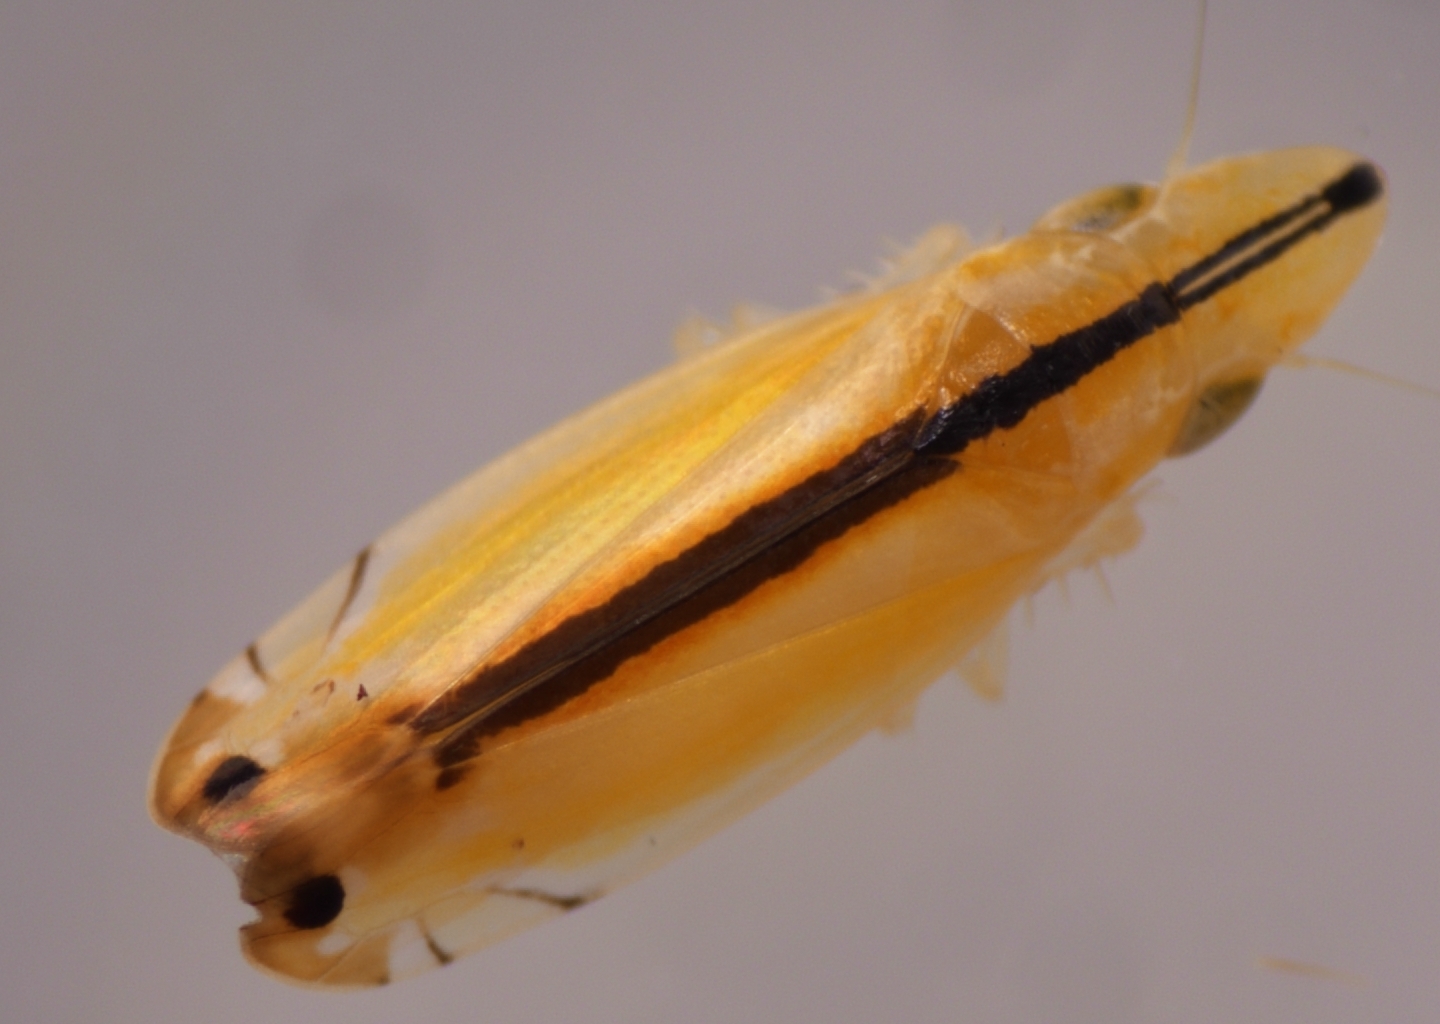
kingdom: Animalia
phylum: Arthropoda
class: Insecta
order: Hemiptera
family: Cicadellidae
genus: Sophonia
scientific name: Sophonia orientalis
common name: Two-spotted leafhopper
